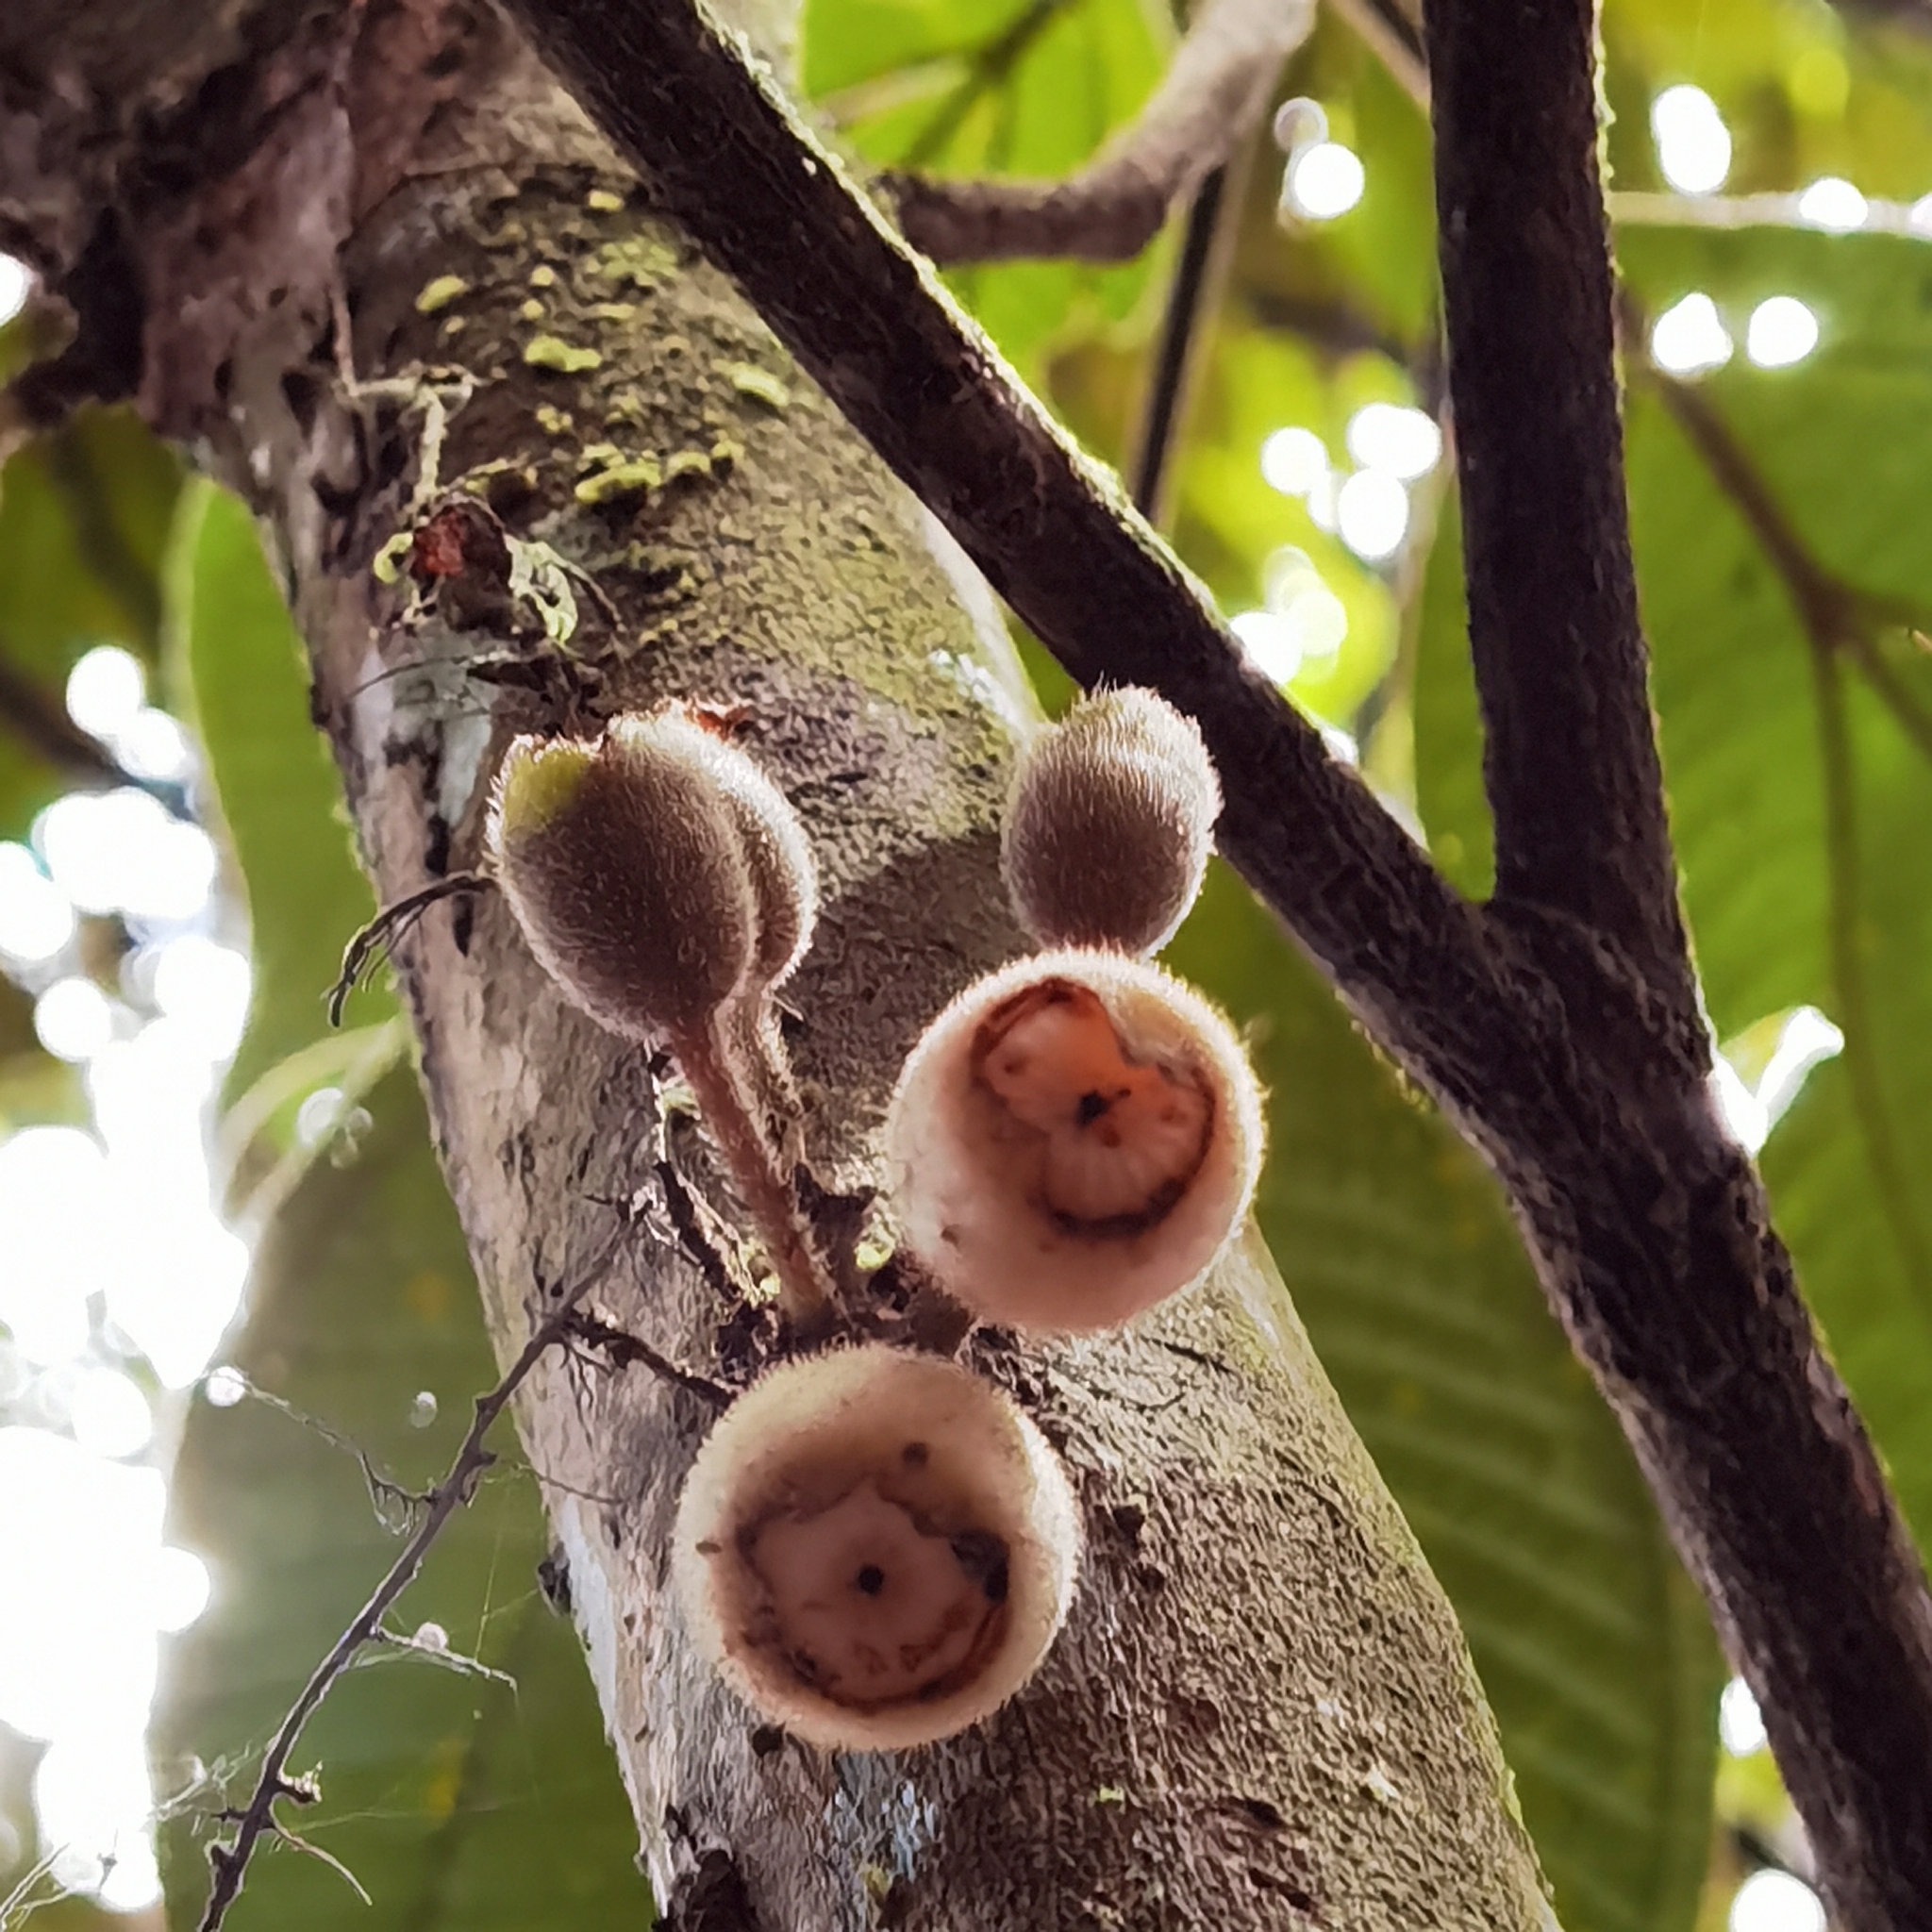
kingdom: Plantae
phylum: Tracheophyta
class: Magnoliopsida
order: Myrtales
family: Melastomataceae
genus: Bellucia
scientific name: Bellucia mespiloides
